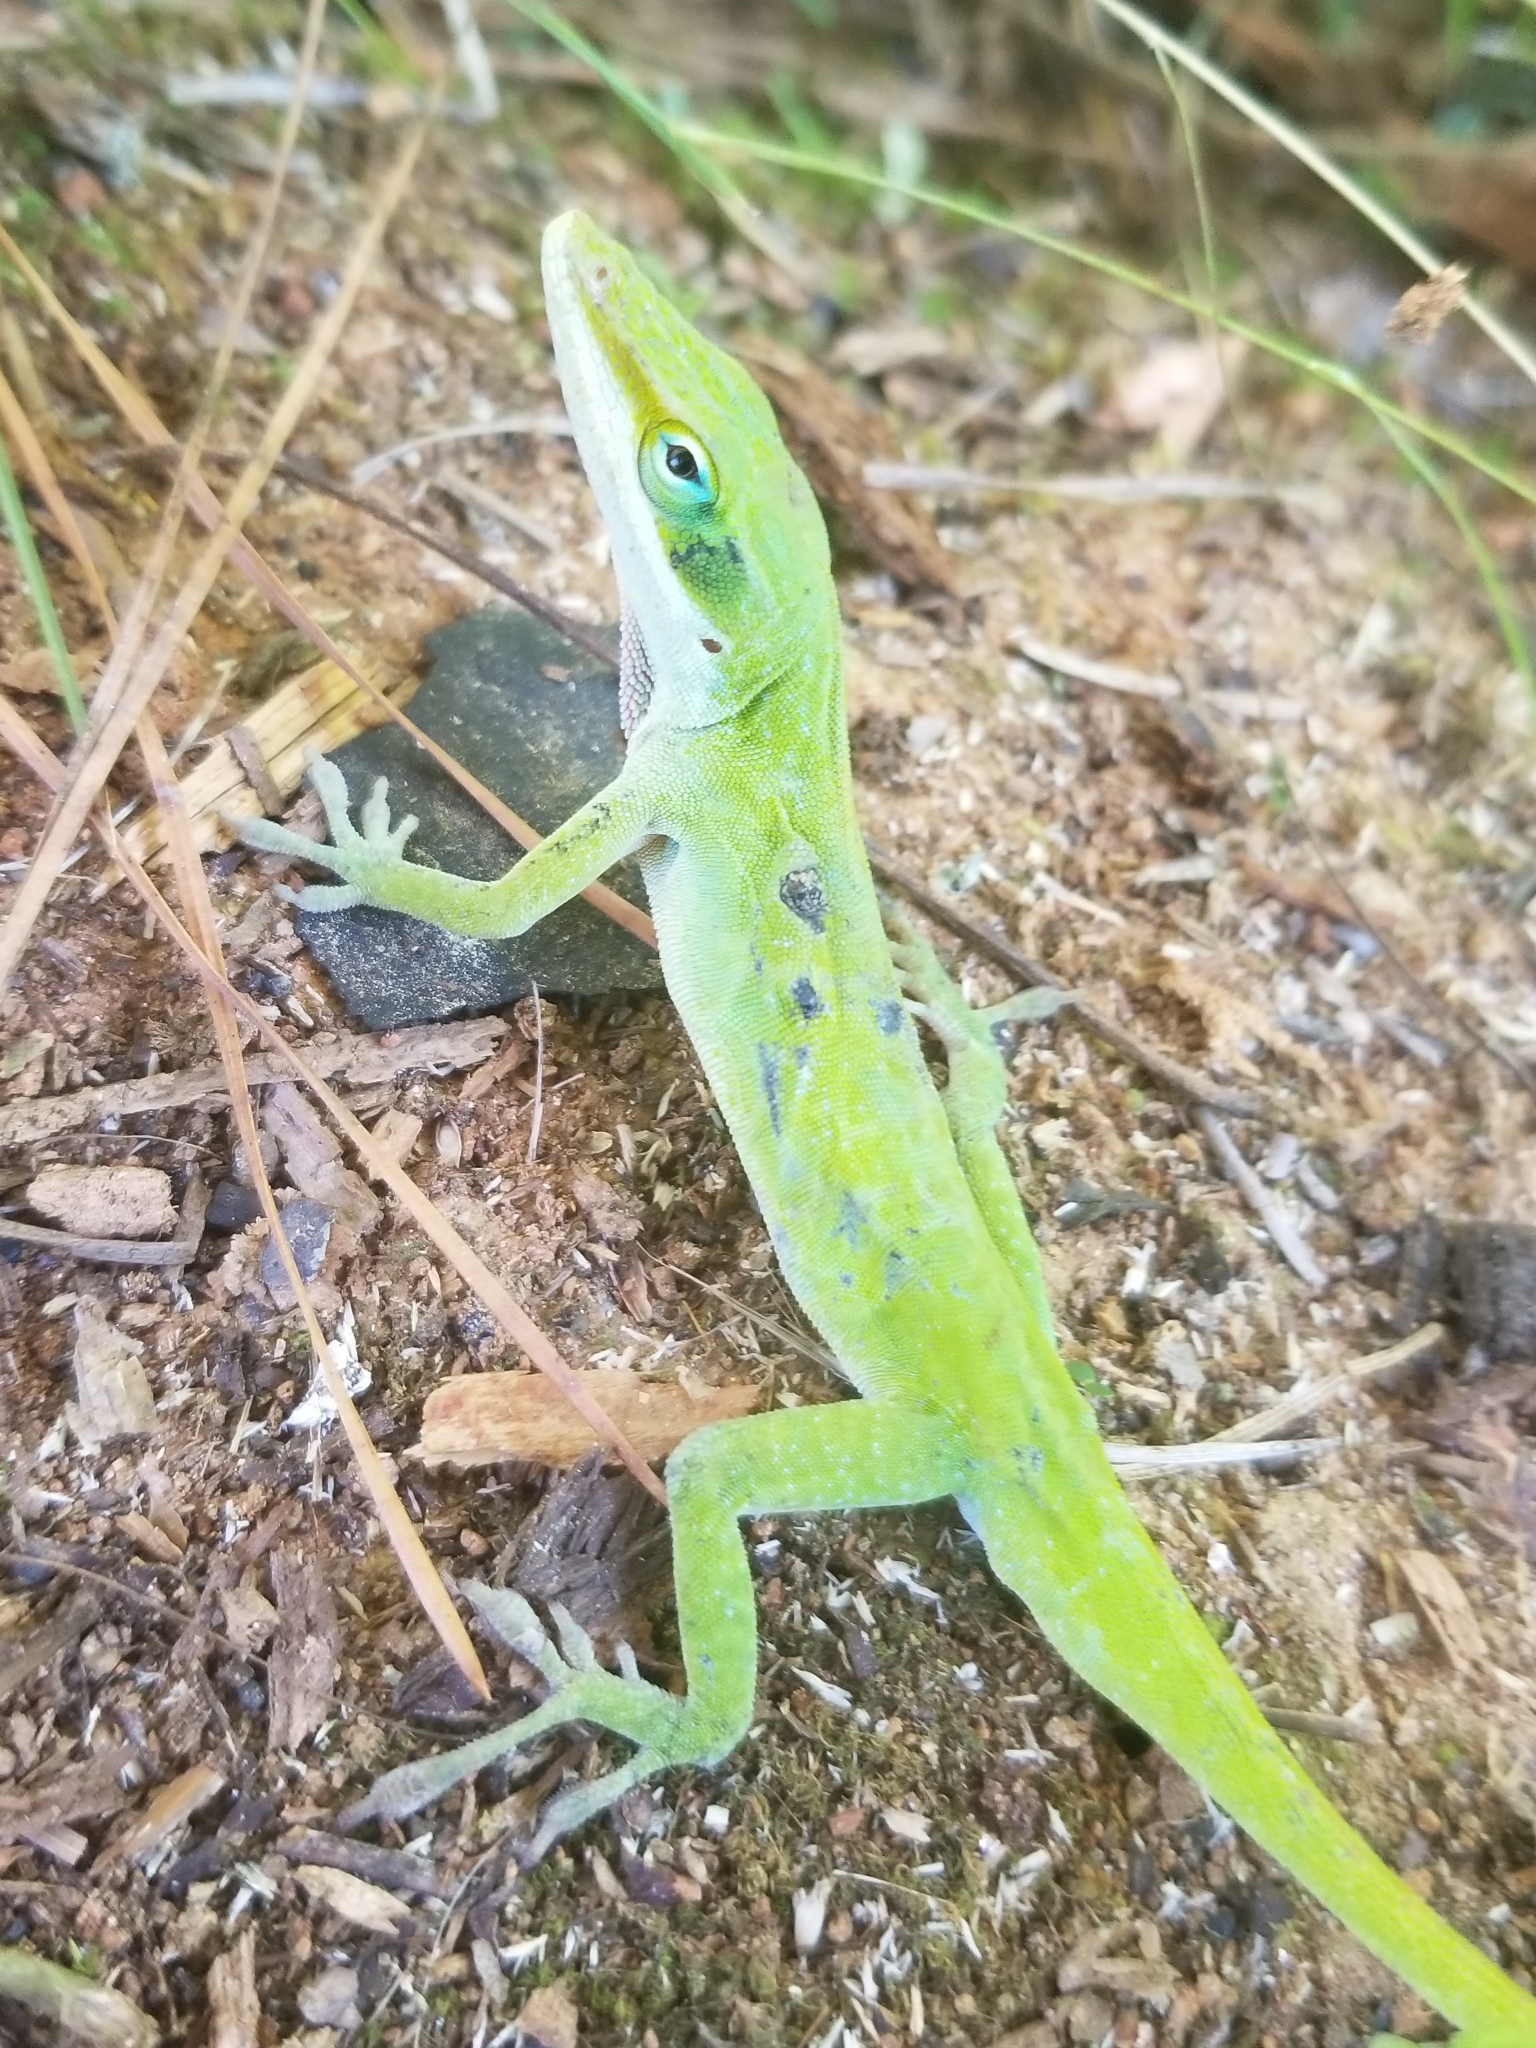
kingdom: Animalia
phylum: Chordata
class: Squamata
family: Dactyloidae
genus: Anolis
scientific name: Anolis carolinensis
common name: Green anole
